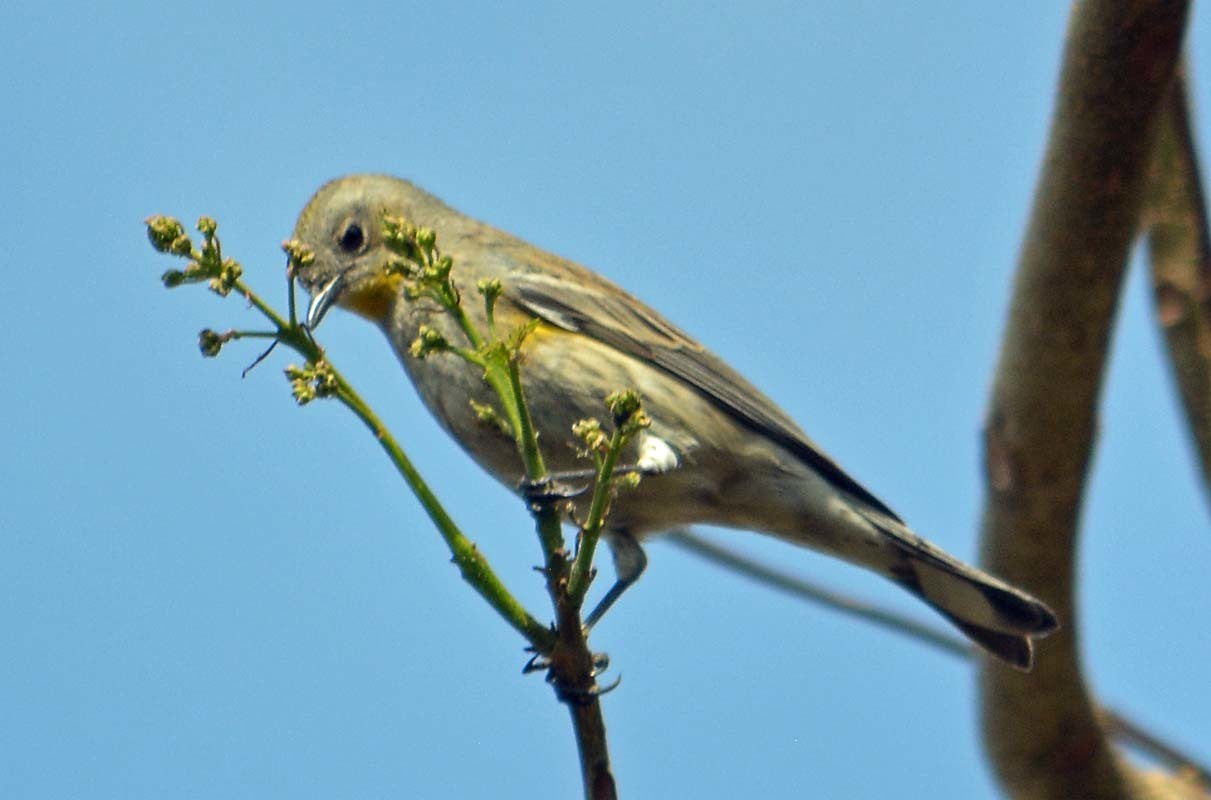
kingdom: Animalia
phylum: Chordata
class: Aves
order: Passeriformes
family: Parulidae
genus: Setophaga
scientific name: Setophaga coronata
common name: Myrtle warbler
